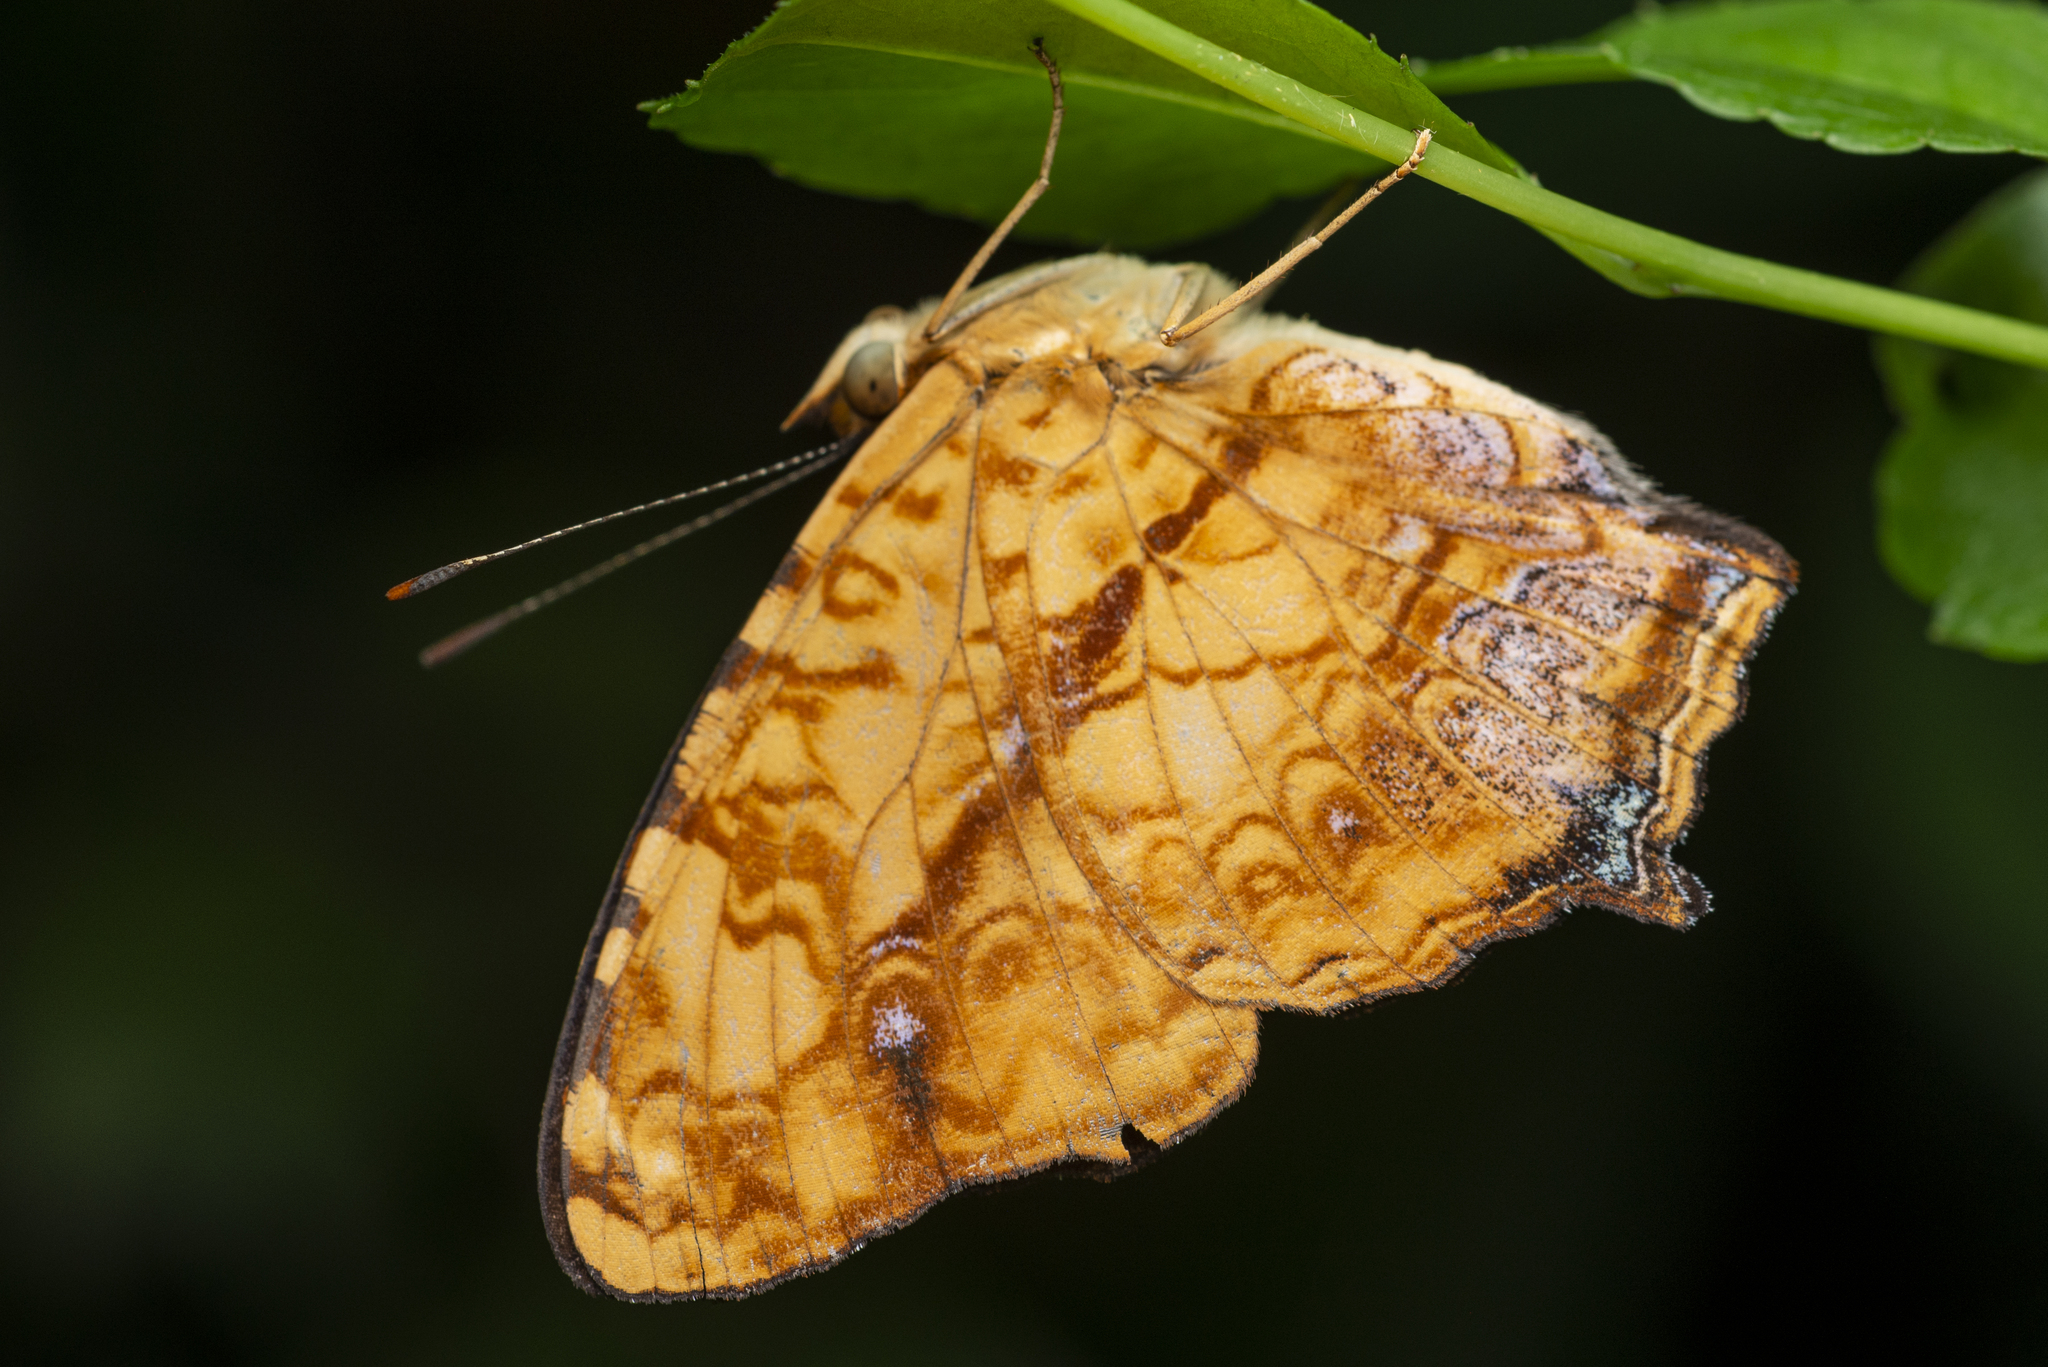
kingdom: Animalia
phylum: Arthropoda
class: Insecta
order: Lepidoptera
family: Nymphalidae
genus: Symbrenthia
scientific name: Symbrenthia hypselis
